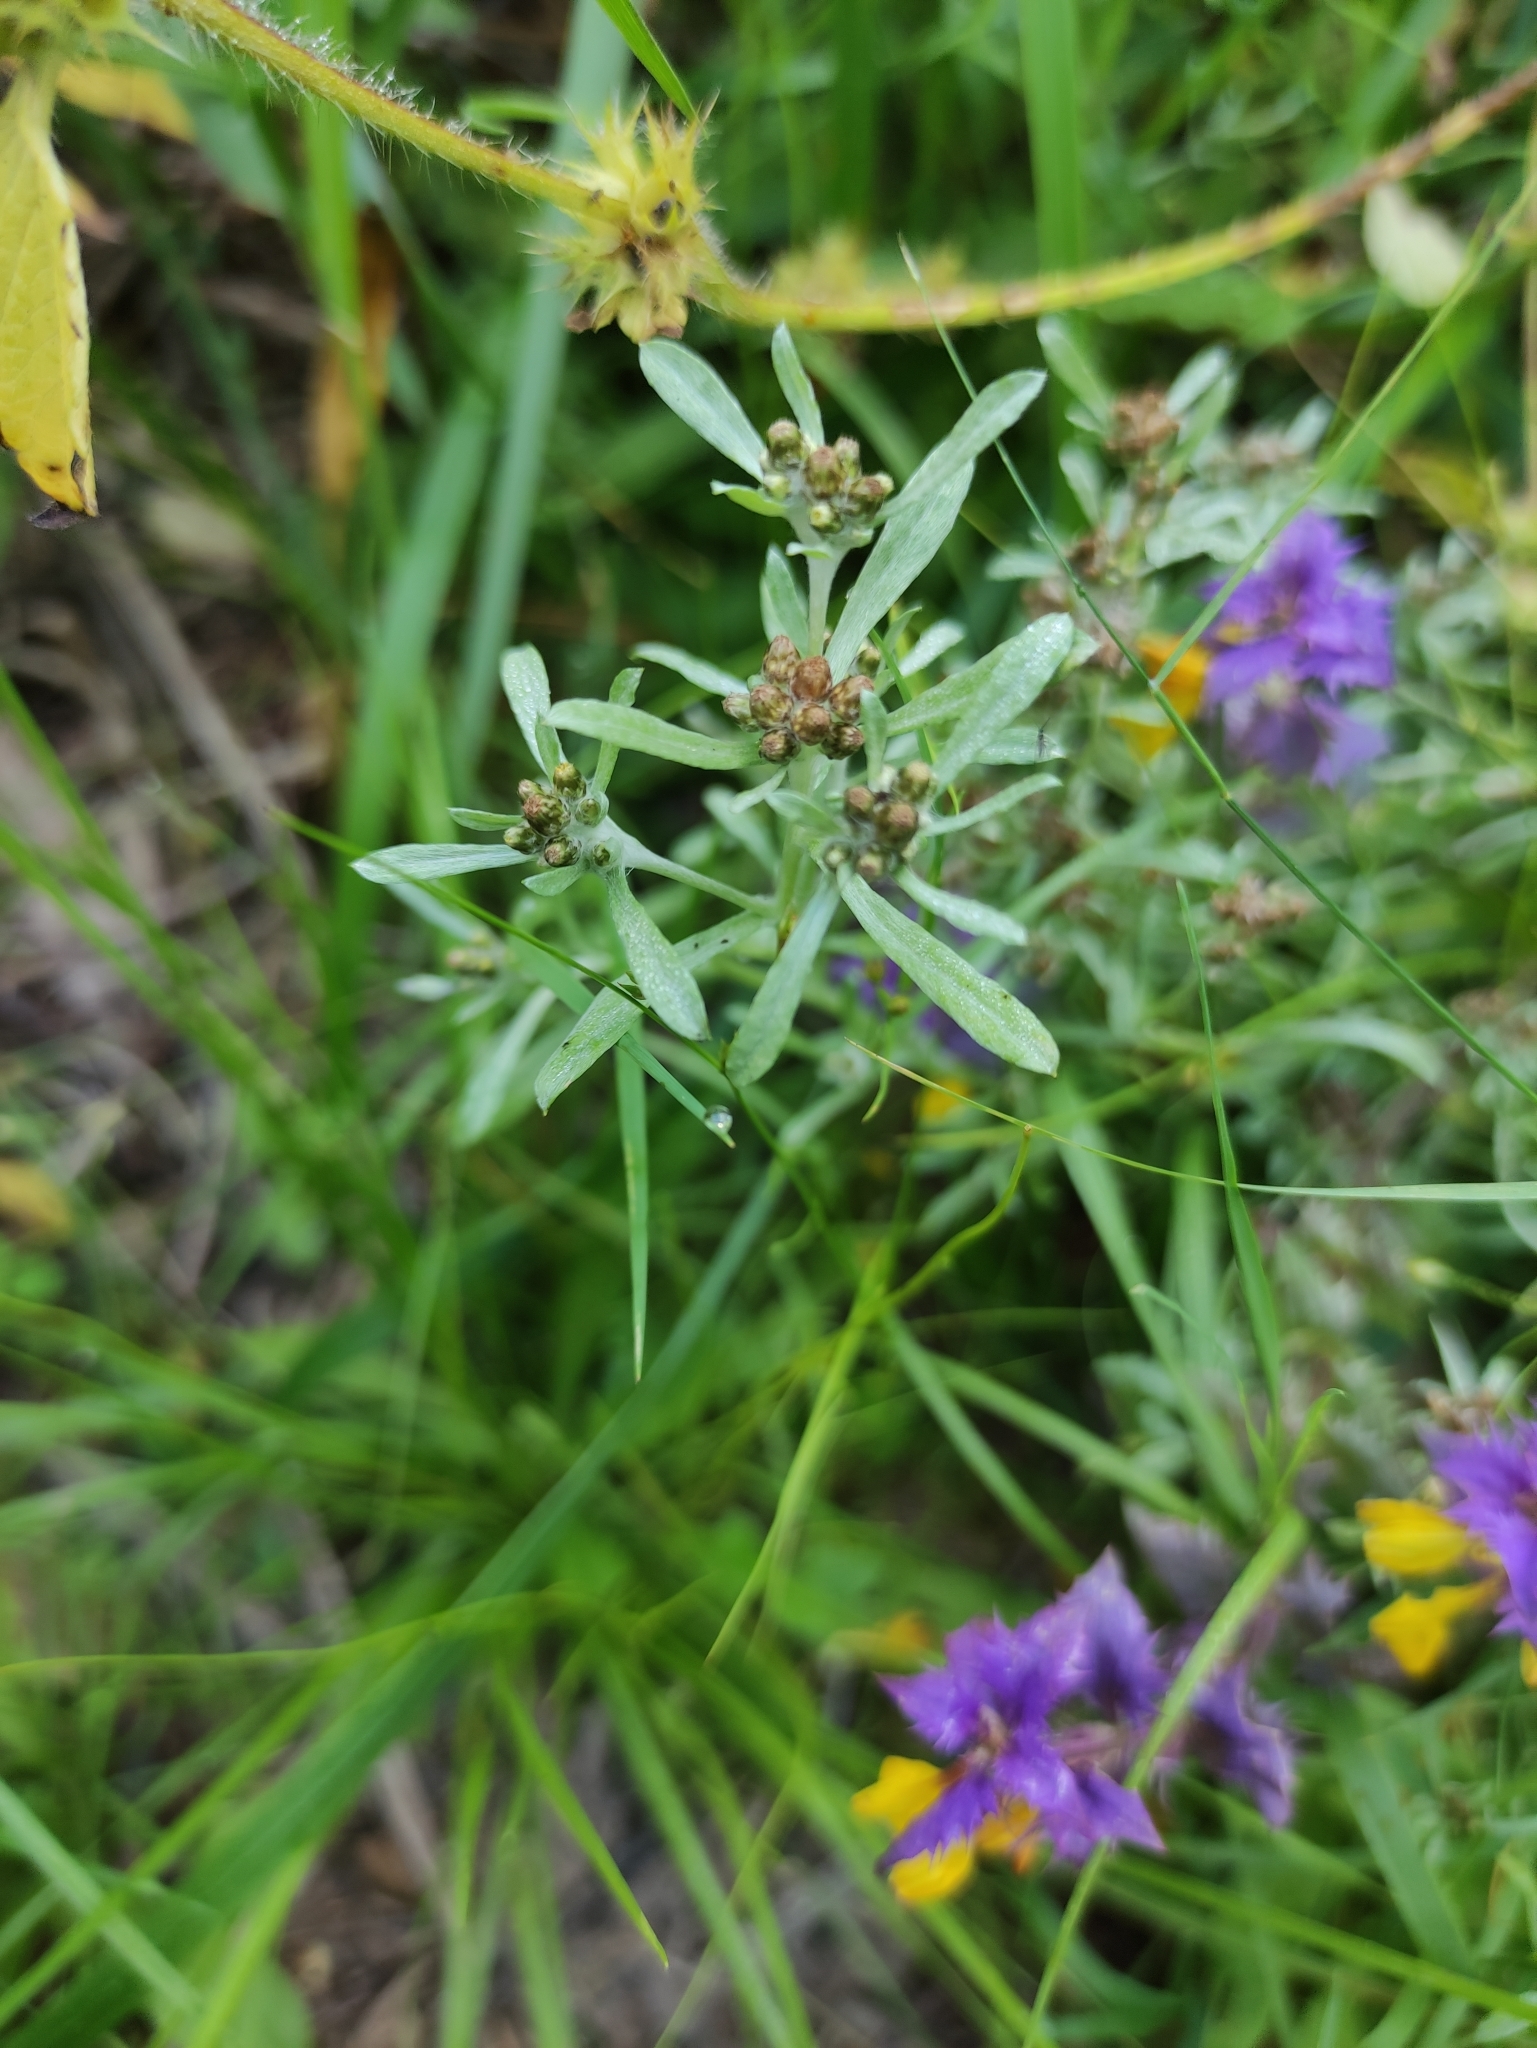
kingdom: Plantae
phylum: Tracheophyta
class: Magnoliopsida
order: Asterales
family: Asteraceae
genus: Gnaphalium
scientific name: Gnaphalium uliginosum
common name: Marsh cudweed
